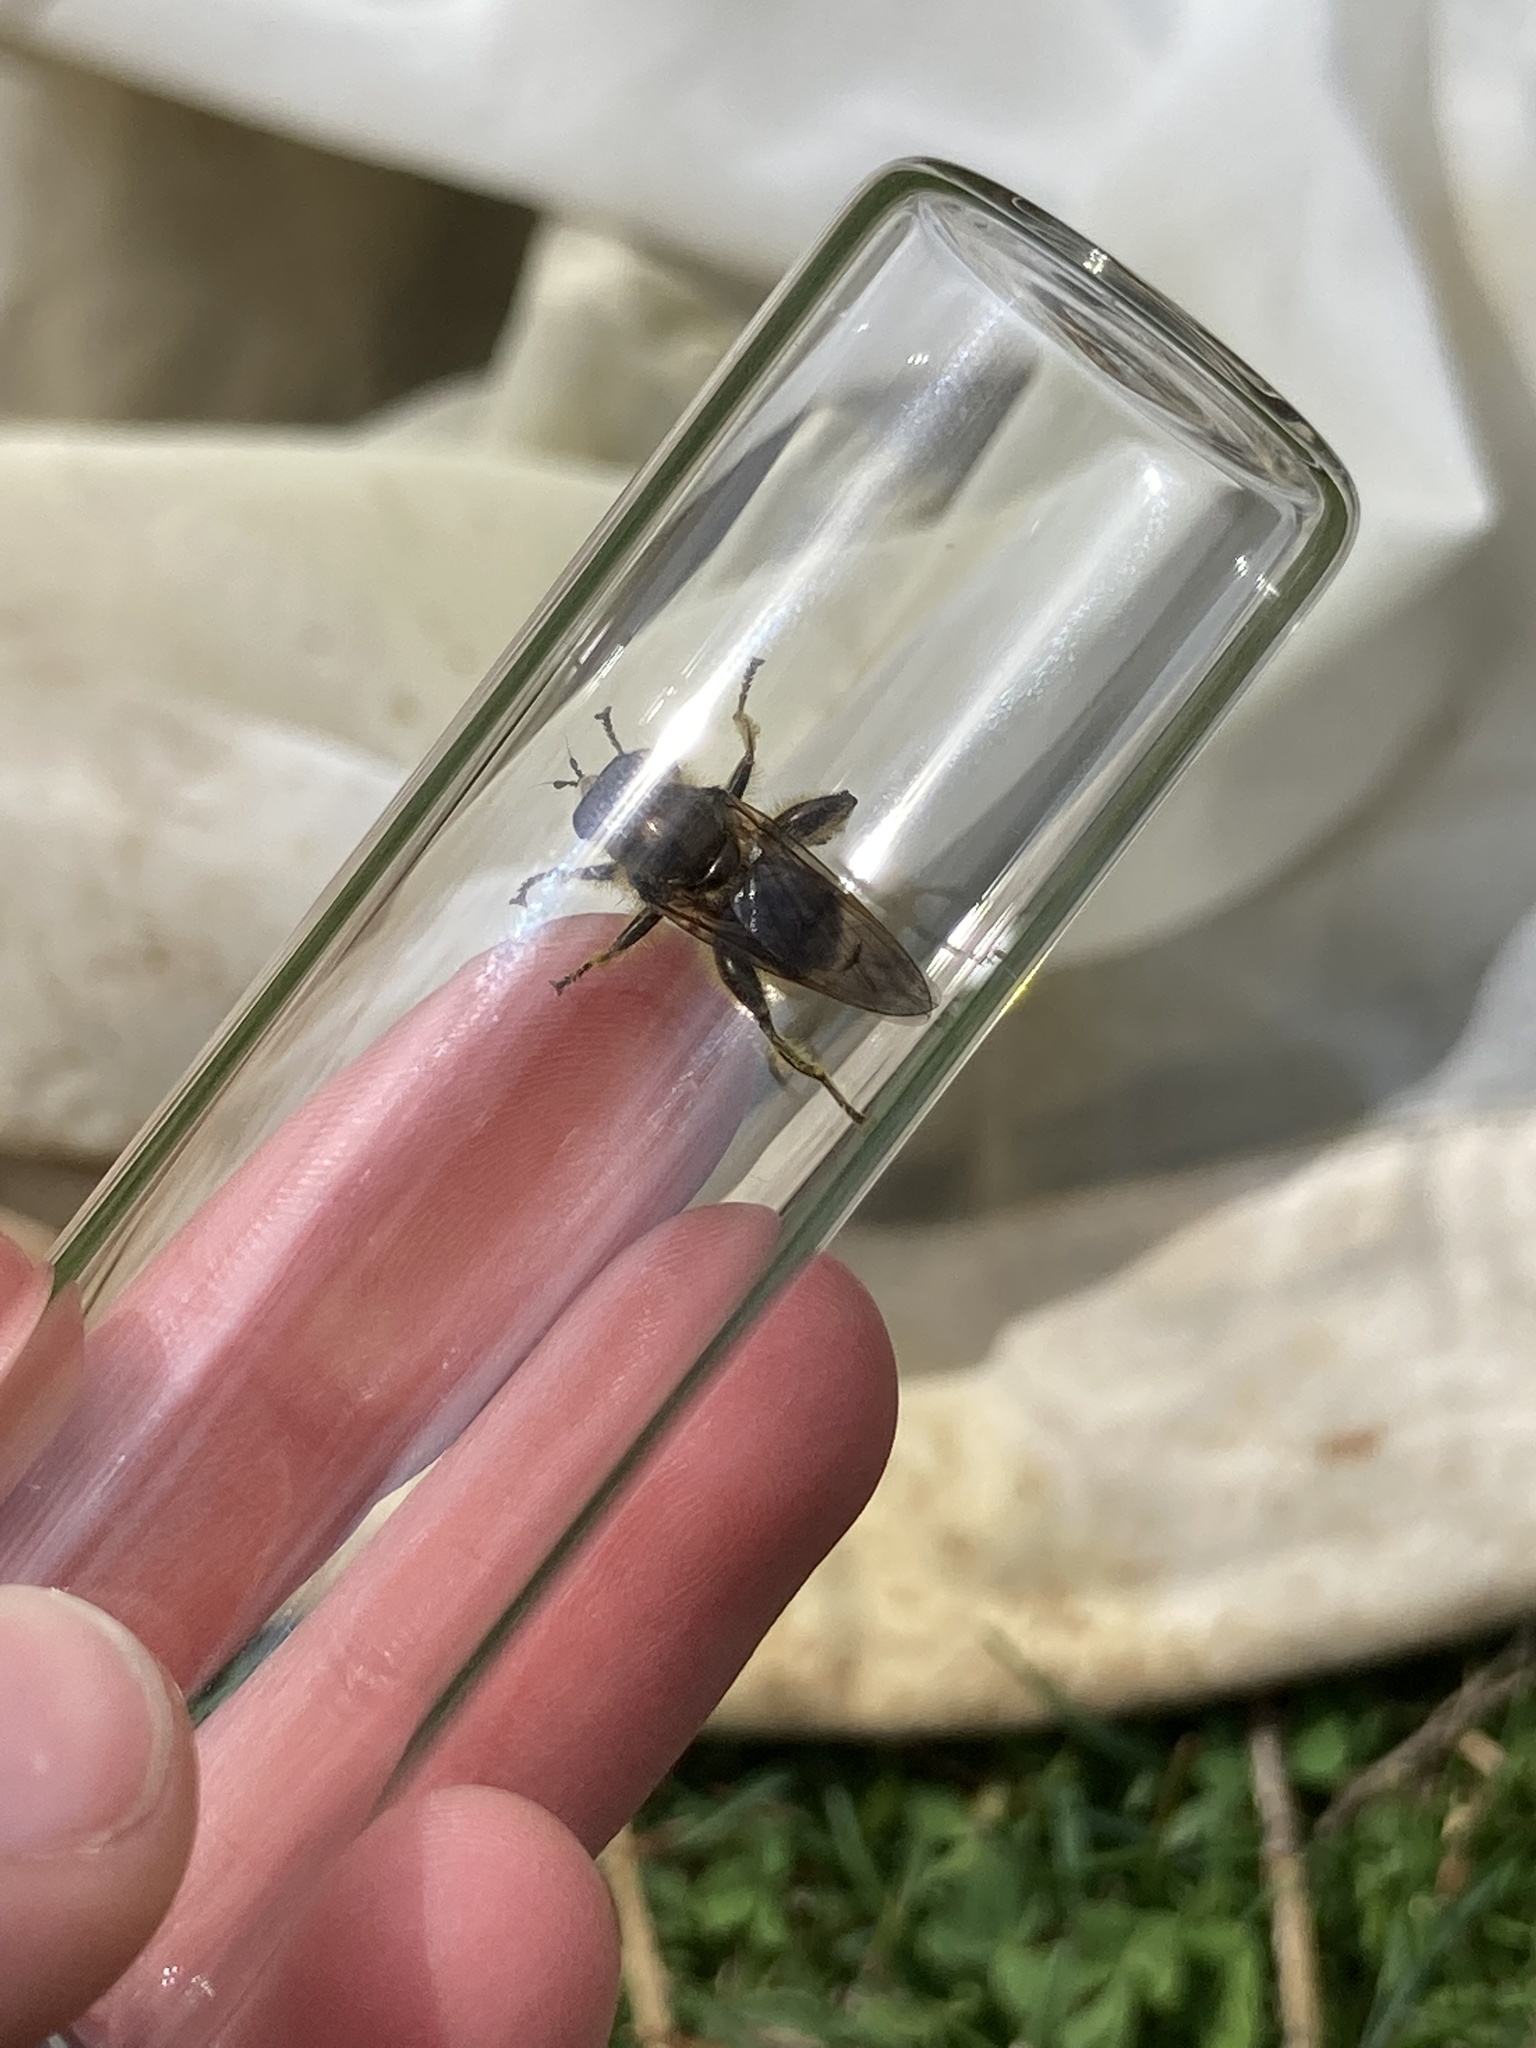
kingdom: Animalia
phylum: Arthropoda
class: Insecta
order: Diptera
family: Syrphidae
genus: Brachypalpus
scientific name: Brachypalpus oarus
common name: Eastern catkin fly
